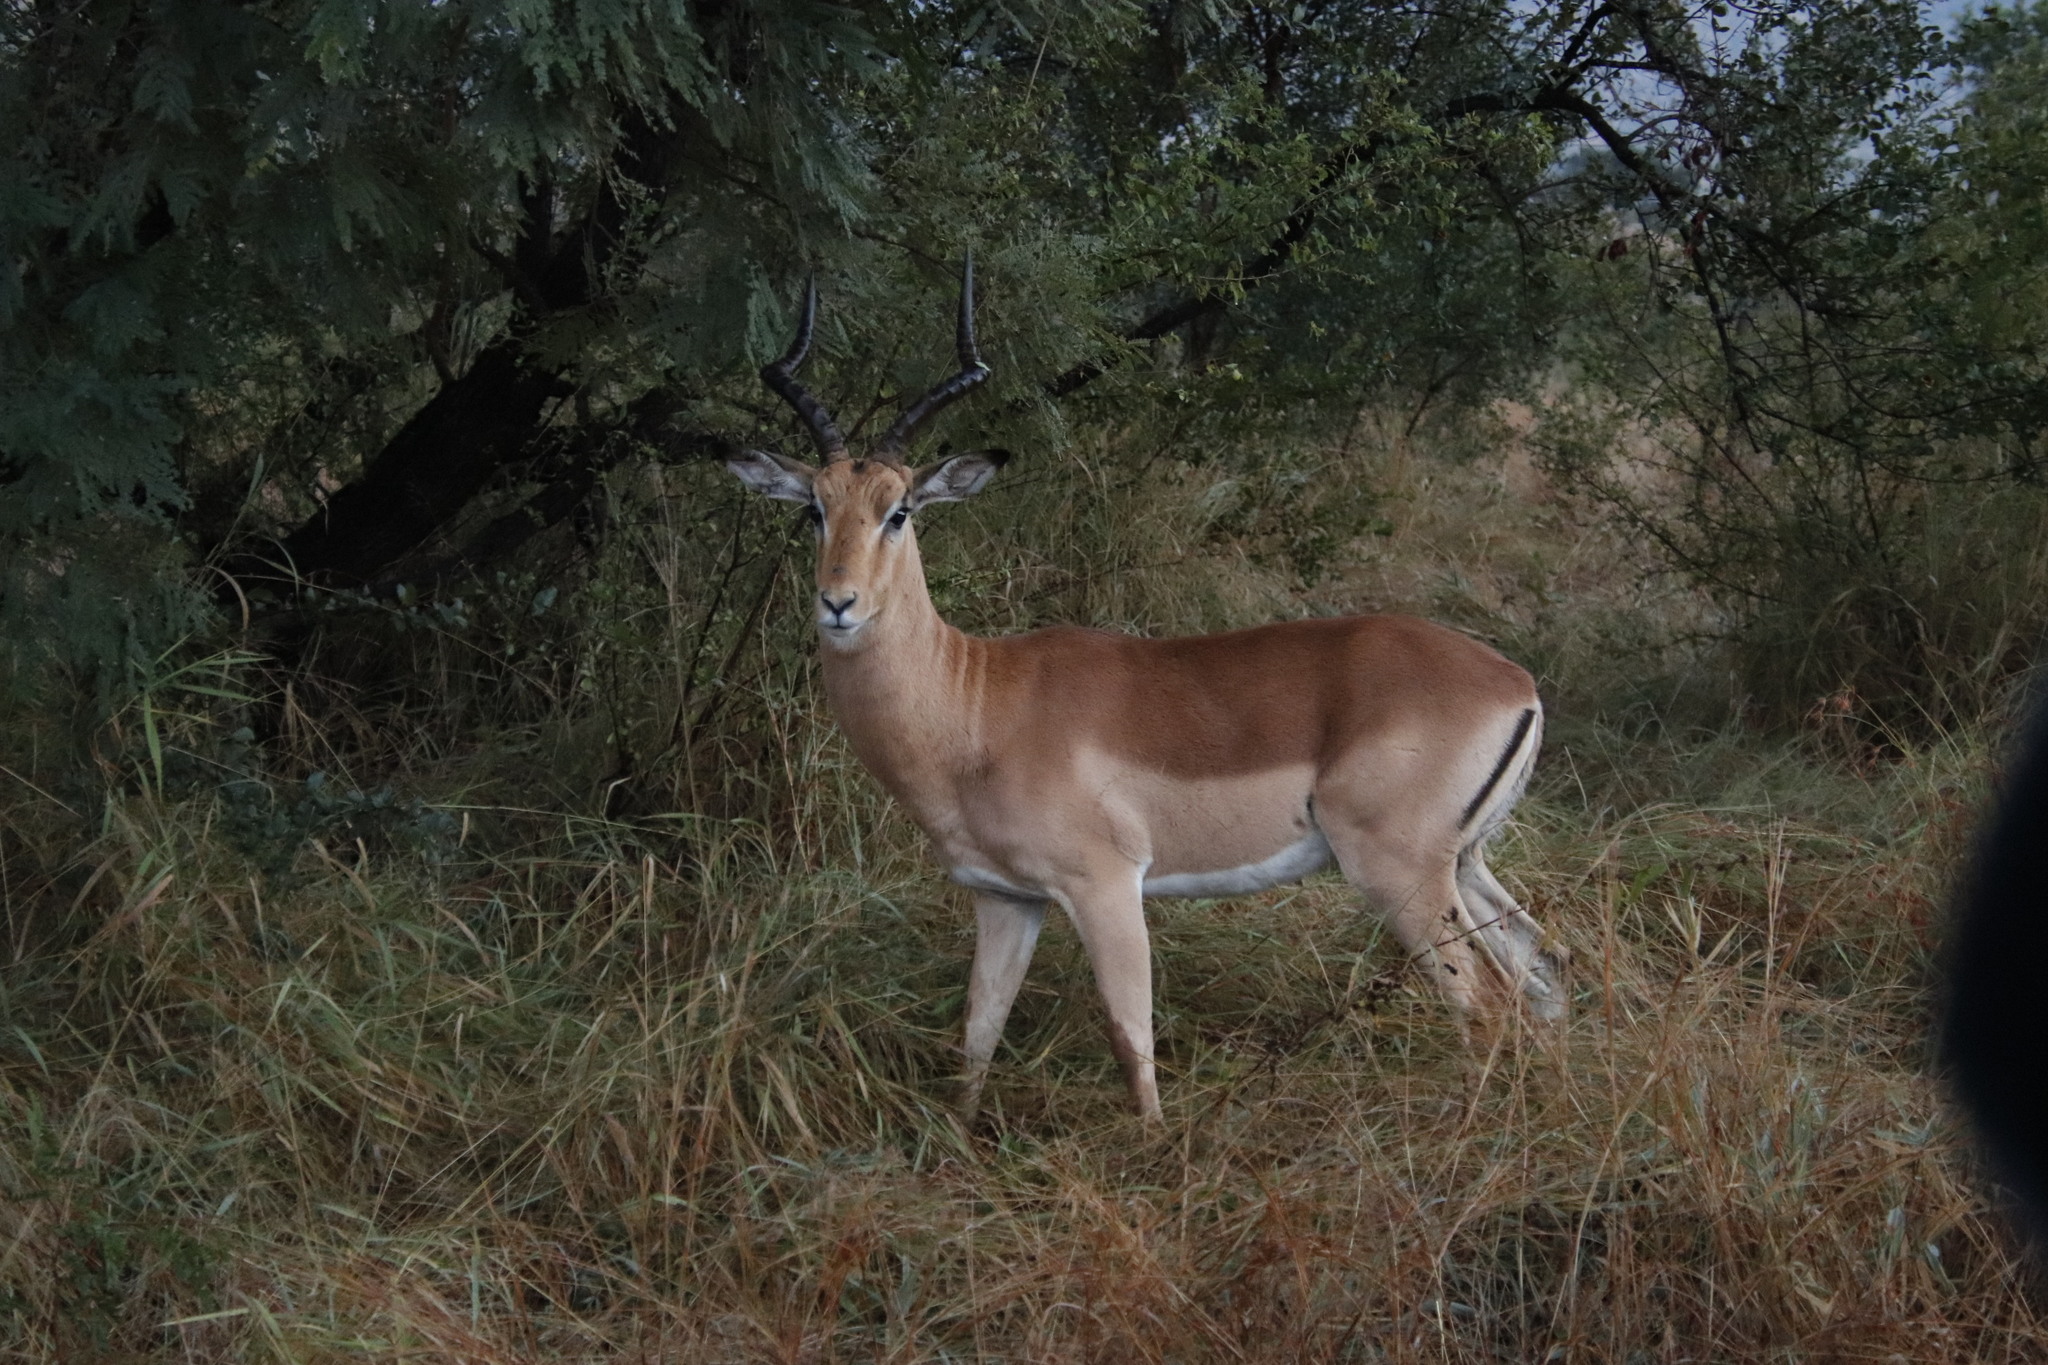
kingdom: Animalia
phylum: Chordata
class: Mammalia
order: Artiodactyla
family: Bovidae
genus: Aepyceros
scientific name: Aepyceros melampus
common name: Impala
